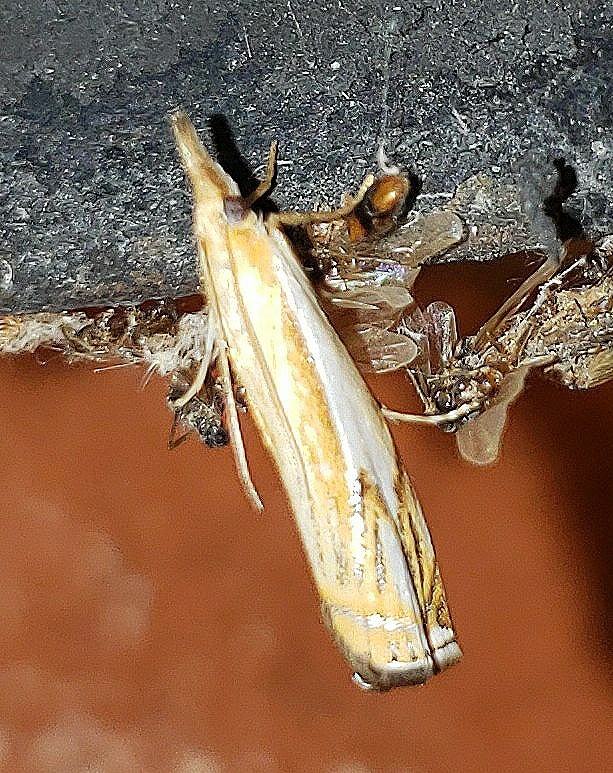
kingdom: Animalia
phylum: Arthropoda
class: Insecta
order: Lepidoptera
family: Crambidae
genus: Crambus
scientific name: Crambus agitatellus
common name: Double-banded grass-veneer
